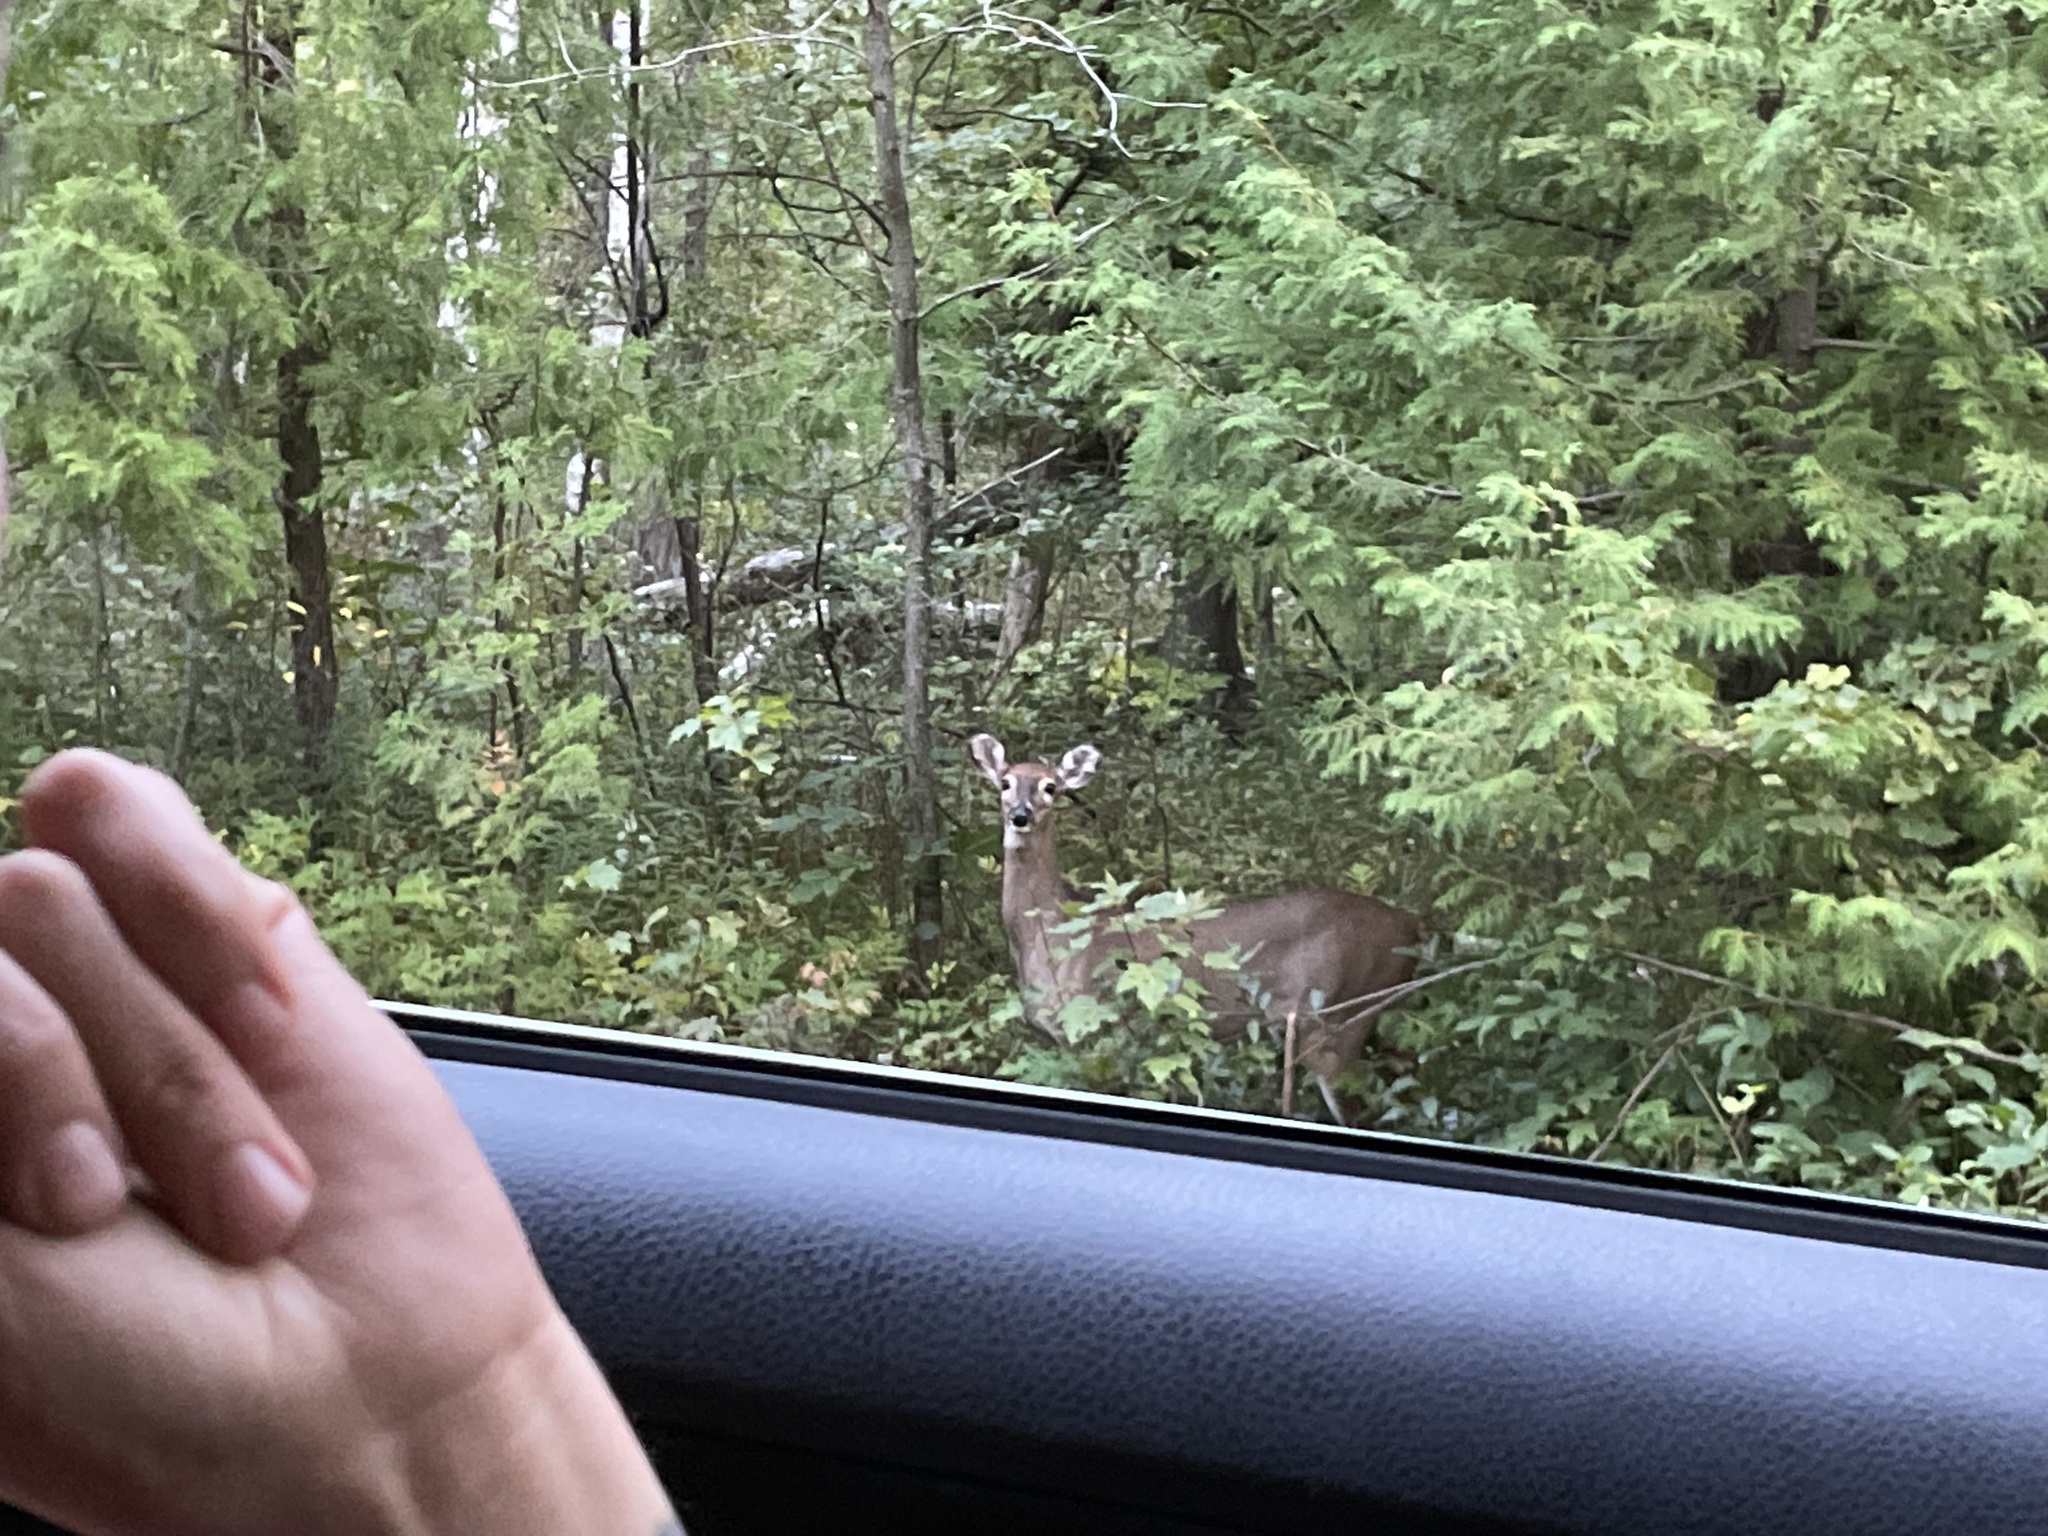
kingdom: Animalia
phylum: Chordata
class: Mammalia
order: Artiodactyla
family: Cervidae
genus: Odocoileus
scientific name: Odocoileus virginianus
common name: White-tailed deer
